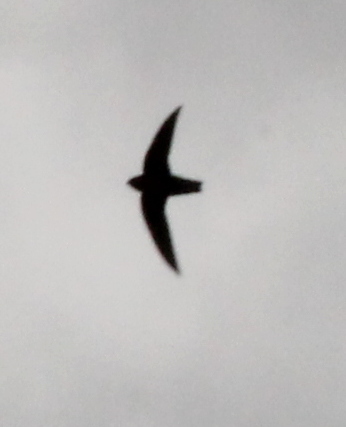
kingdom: Animalia
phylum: Chordata
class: Aves
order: Apodiformes
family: Apodidae
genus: Chaetura
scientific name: Chaetura pelagica
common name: Chimney swift
